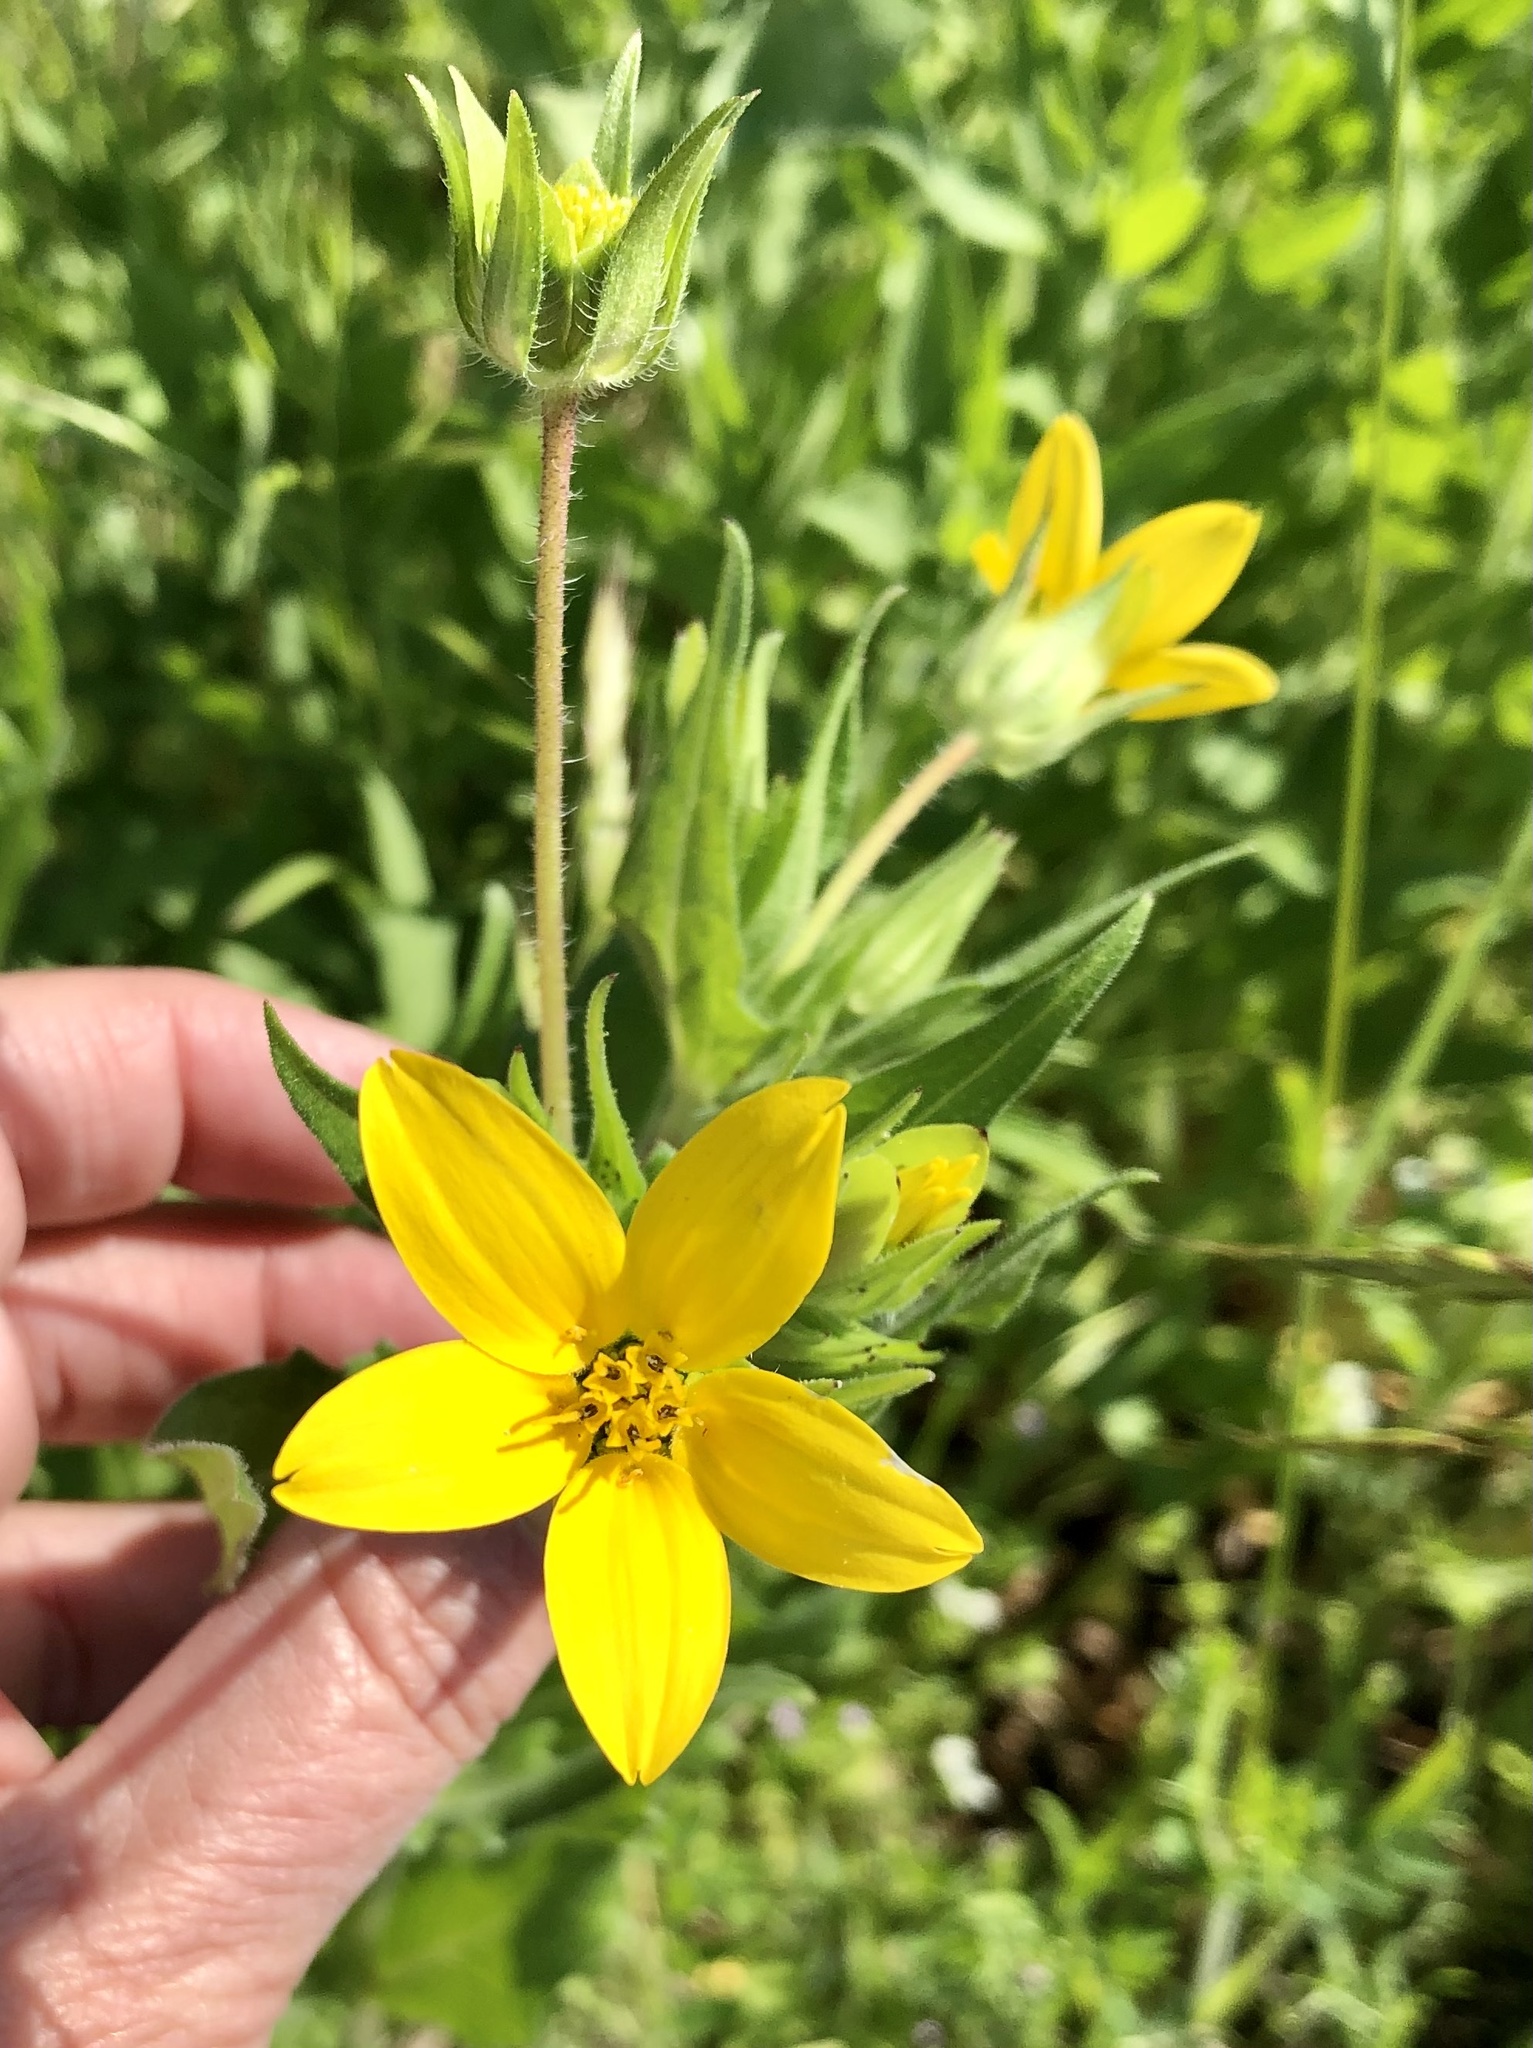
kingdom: Plantae
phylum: Tracheophyta
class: Magnoliopsida
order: Asterales
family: Asteraceae
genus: Lindheimera
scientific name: Lindheimera texana
